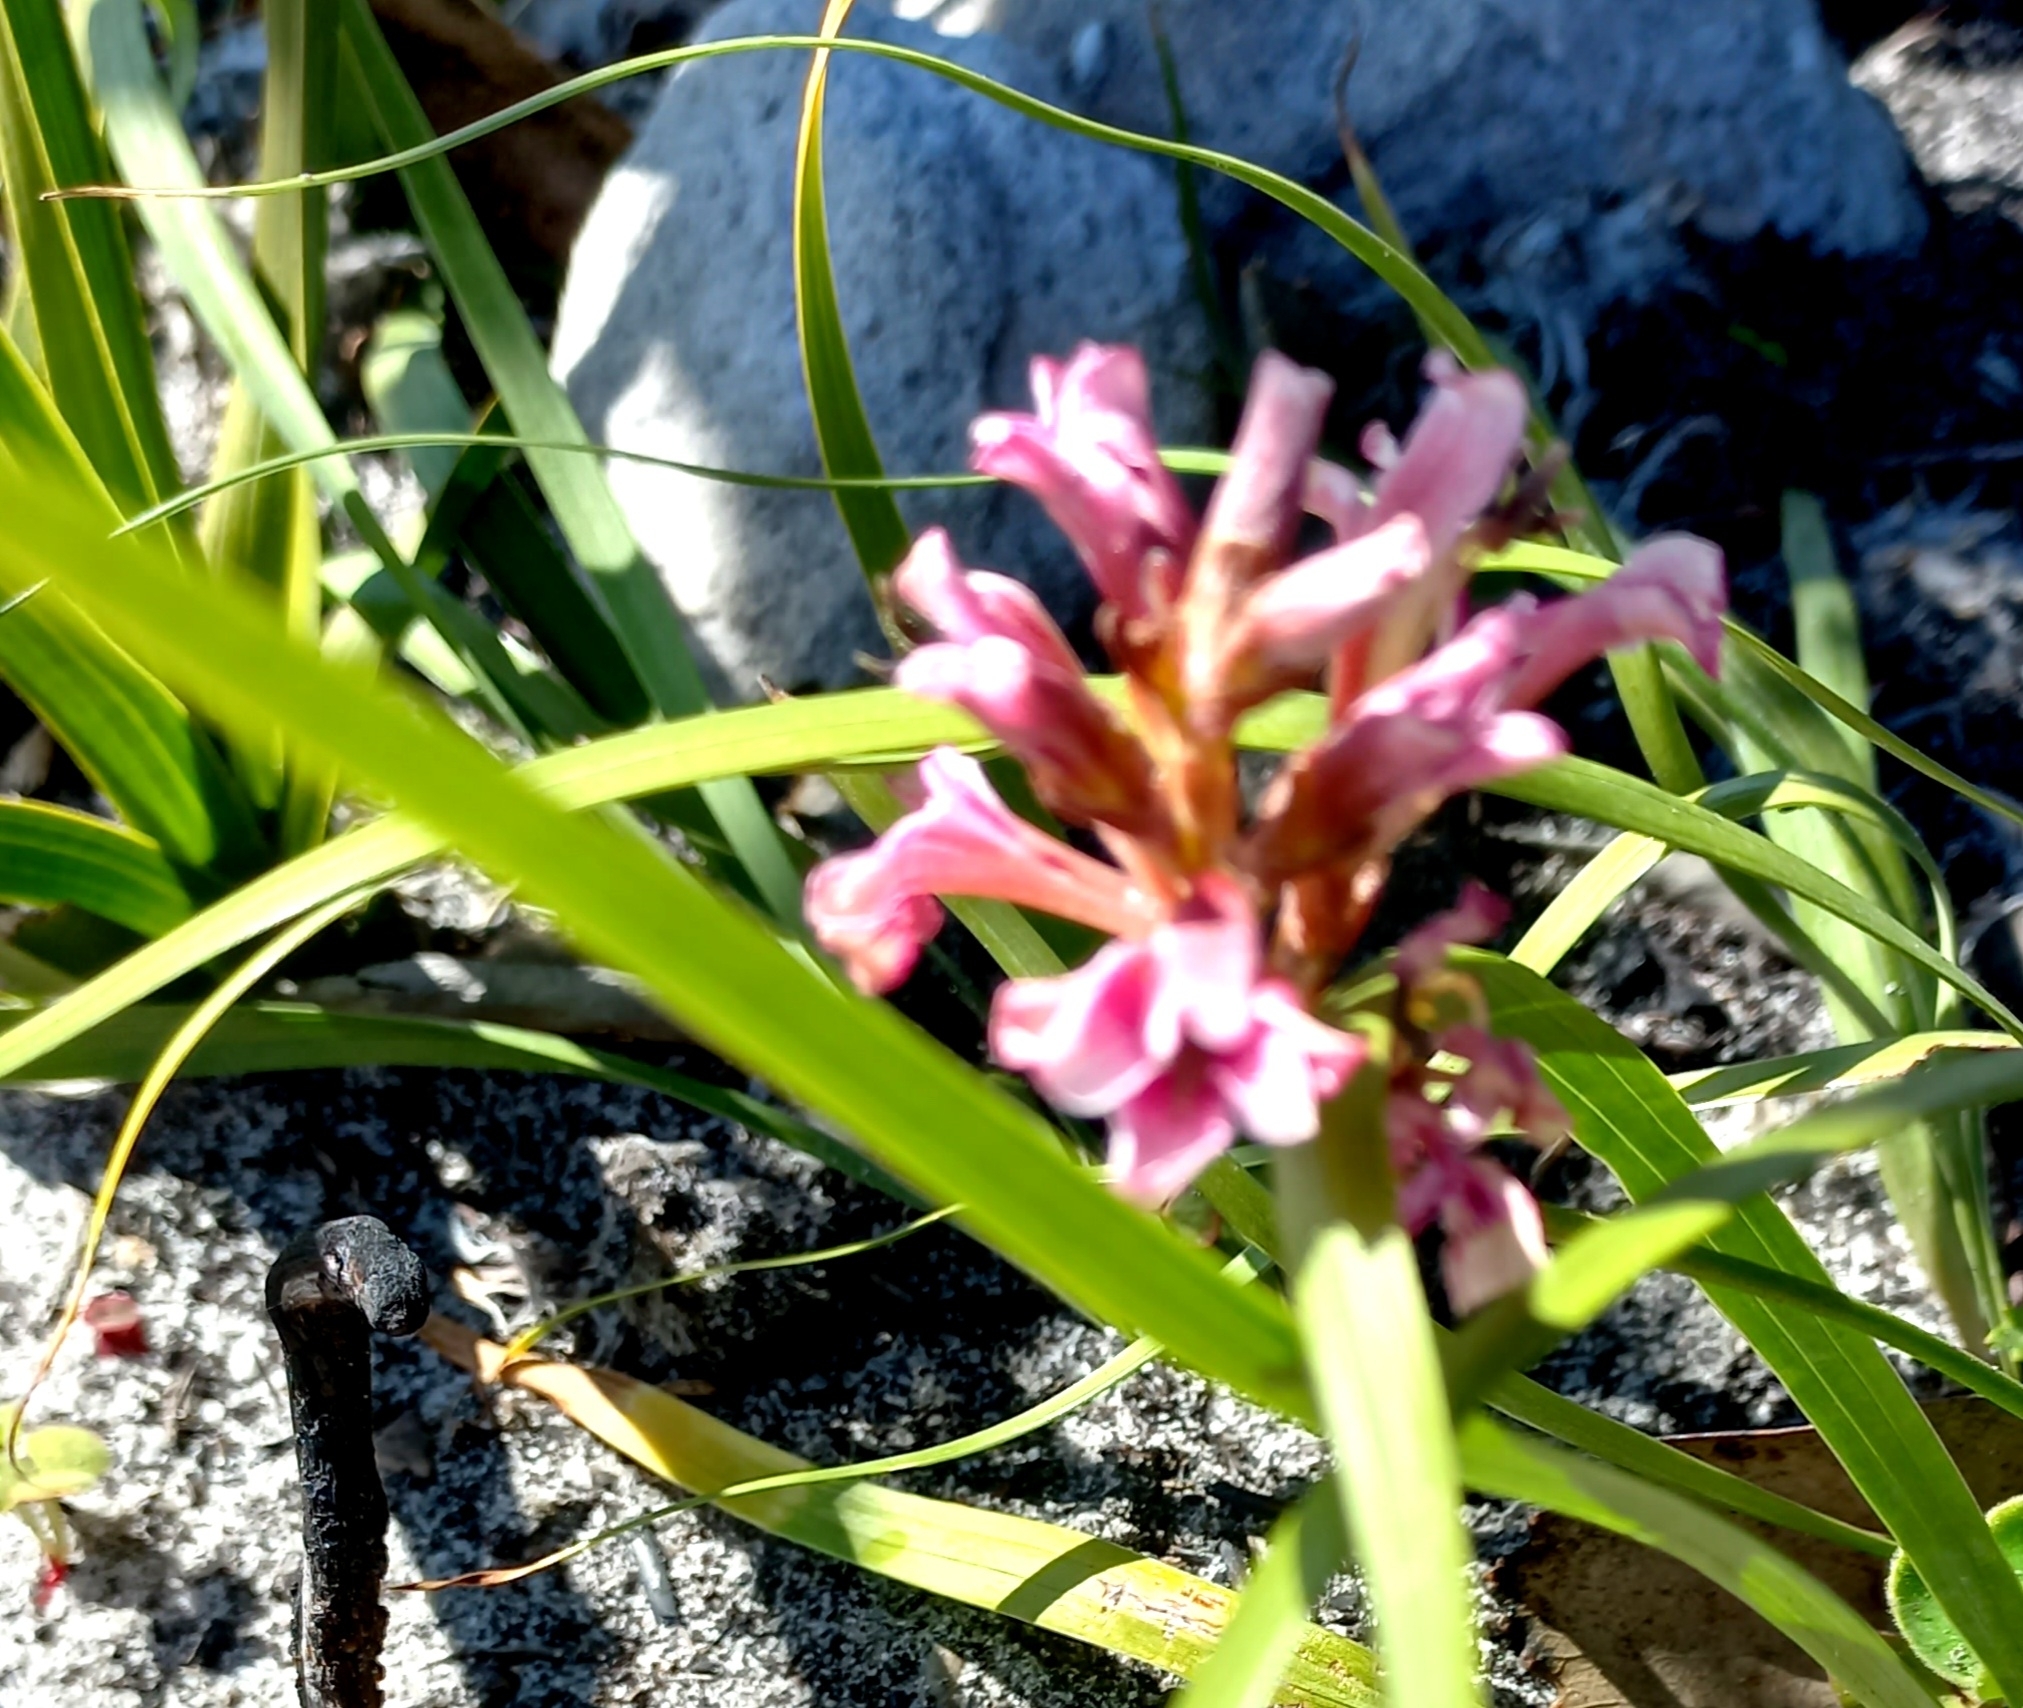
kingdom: Plantae
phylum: Tracheophyta
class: Liliopsida
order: Asparagales
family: Iridaceae
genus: Tritoniopsis
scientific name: Tritoniopsis dodii
